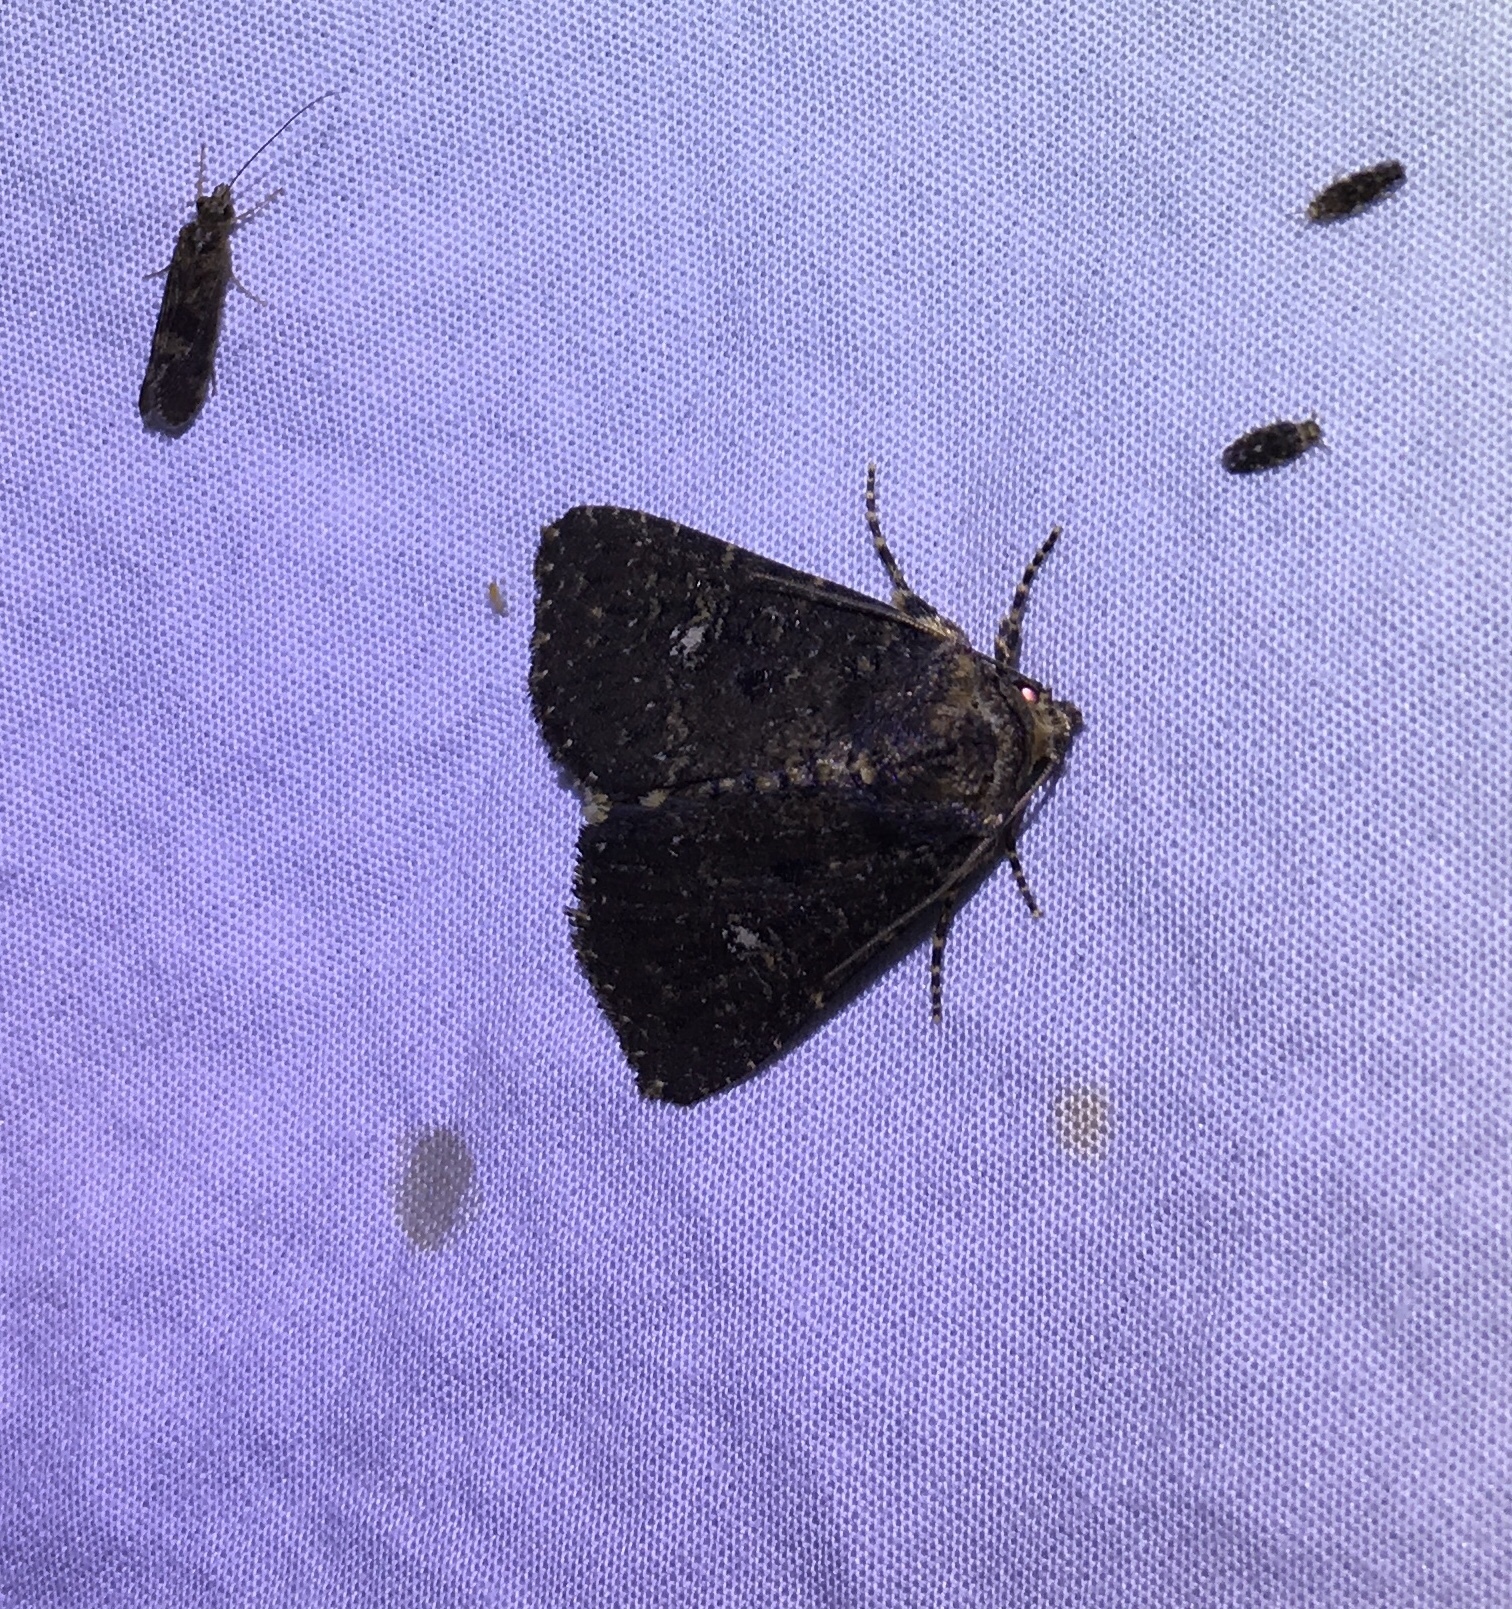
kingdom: Animalia
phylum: Arthropoda
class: Insecta
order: Lepidoptera
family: Noctuidae
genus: Condica
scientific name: Condica vecors
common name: Dusky groundling
